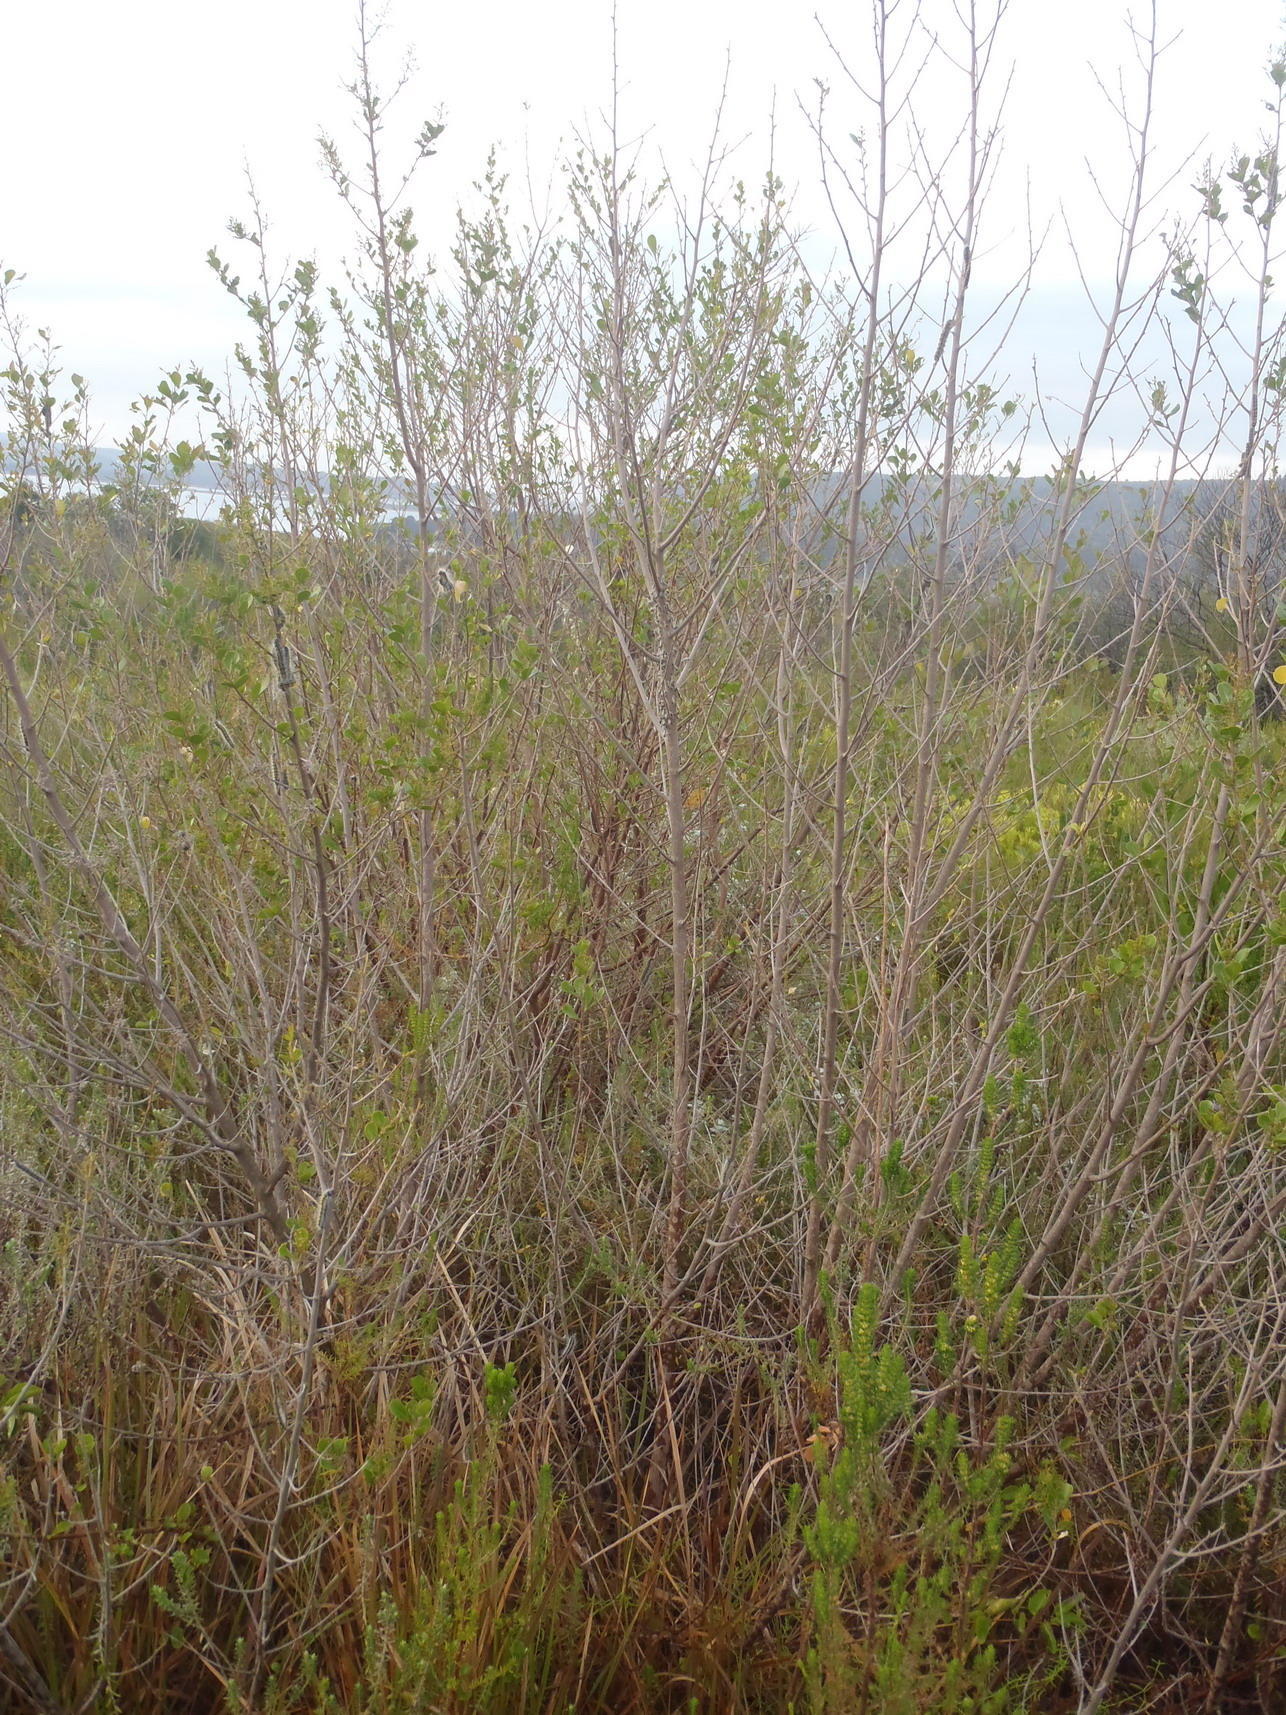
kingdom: Animalia
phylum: Arthropoda
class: Insecta
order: Lepidoptera
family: Lasiocampidae
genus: Bombycomorpha
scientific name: Bombycomorpha bifascia
